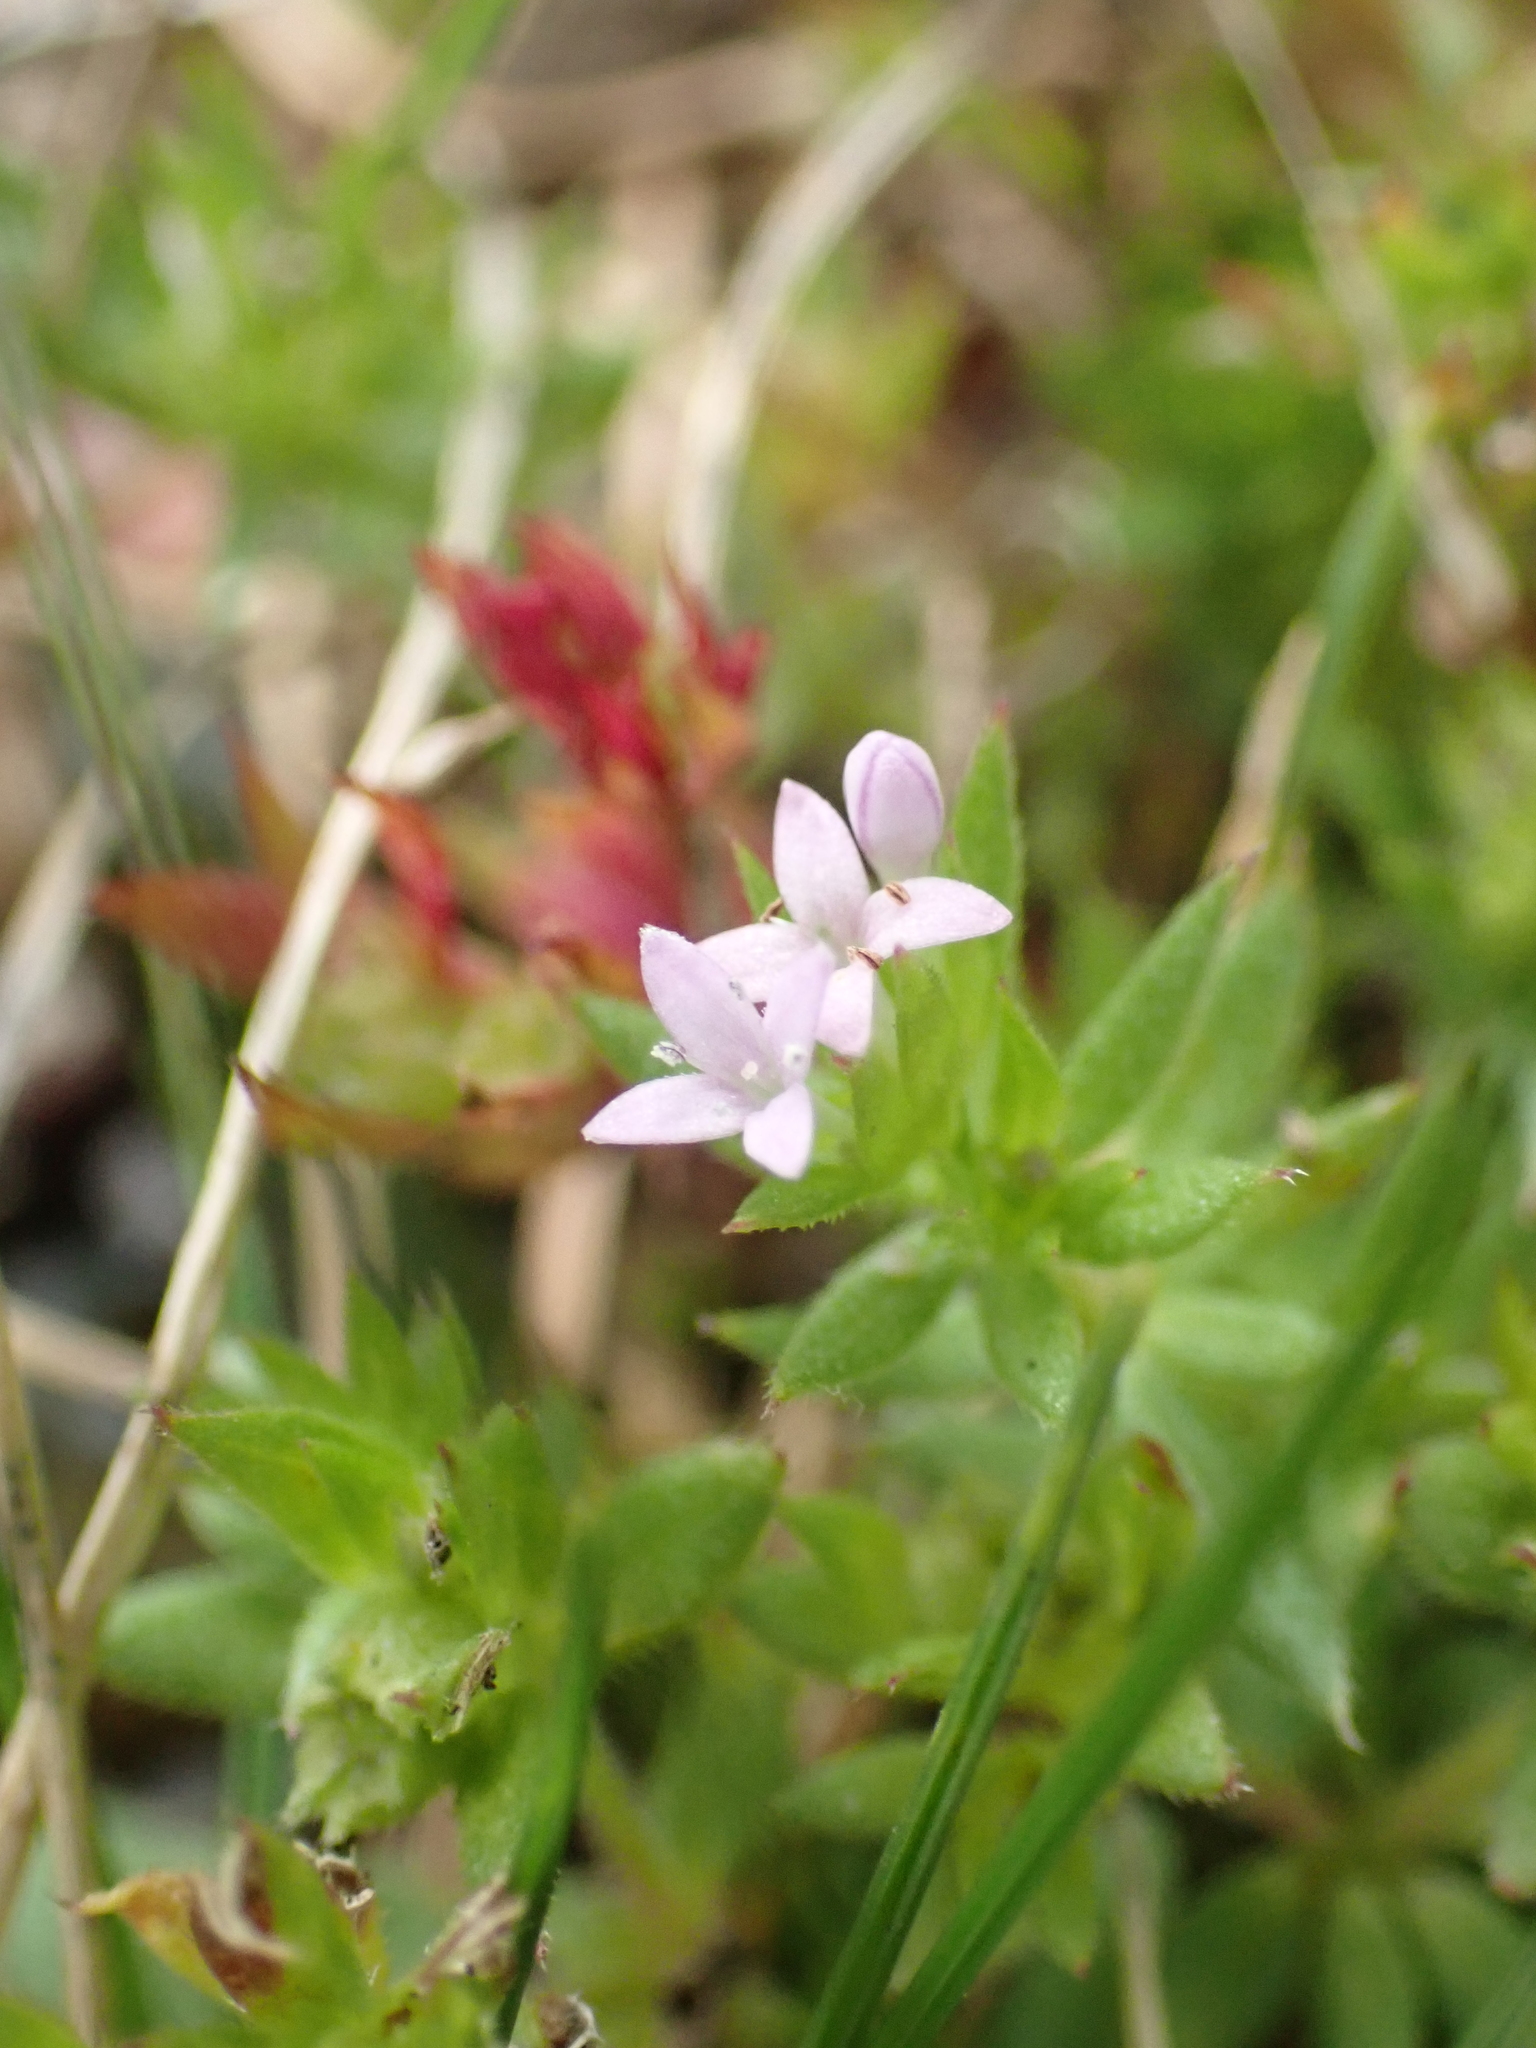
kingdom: Plantae
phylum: Tracheophyta
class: Magnoliopsida
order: Gentianales
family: Rubiaceae
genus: Sherardia
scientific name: Sherardia arvensis
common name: Field madder
